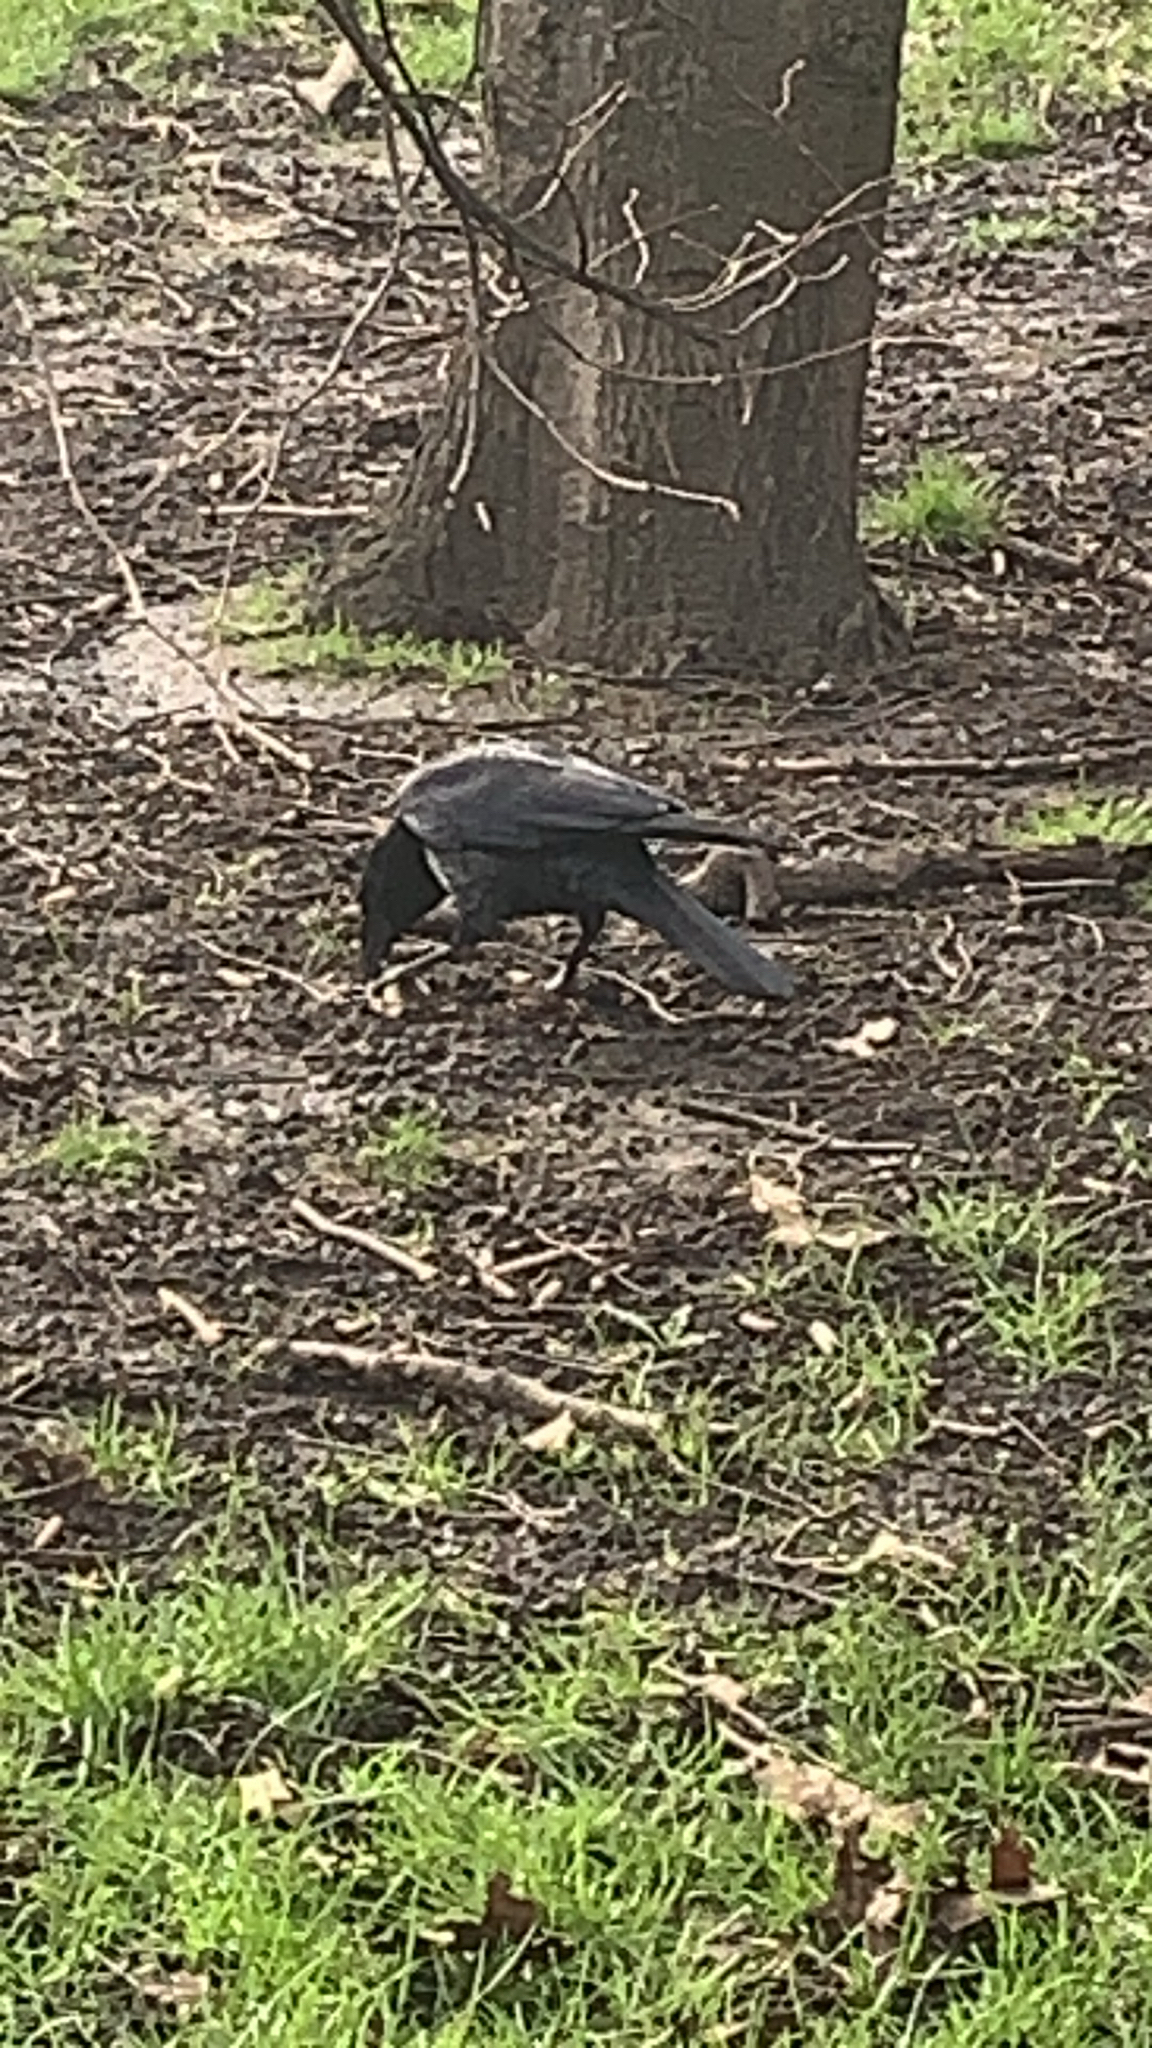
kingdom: Animalia
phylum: Chordata
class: Aves
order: Passeriformes
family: Corvidae
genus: Corvus
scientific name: Corvus corone
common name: Carrion crow
